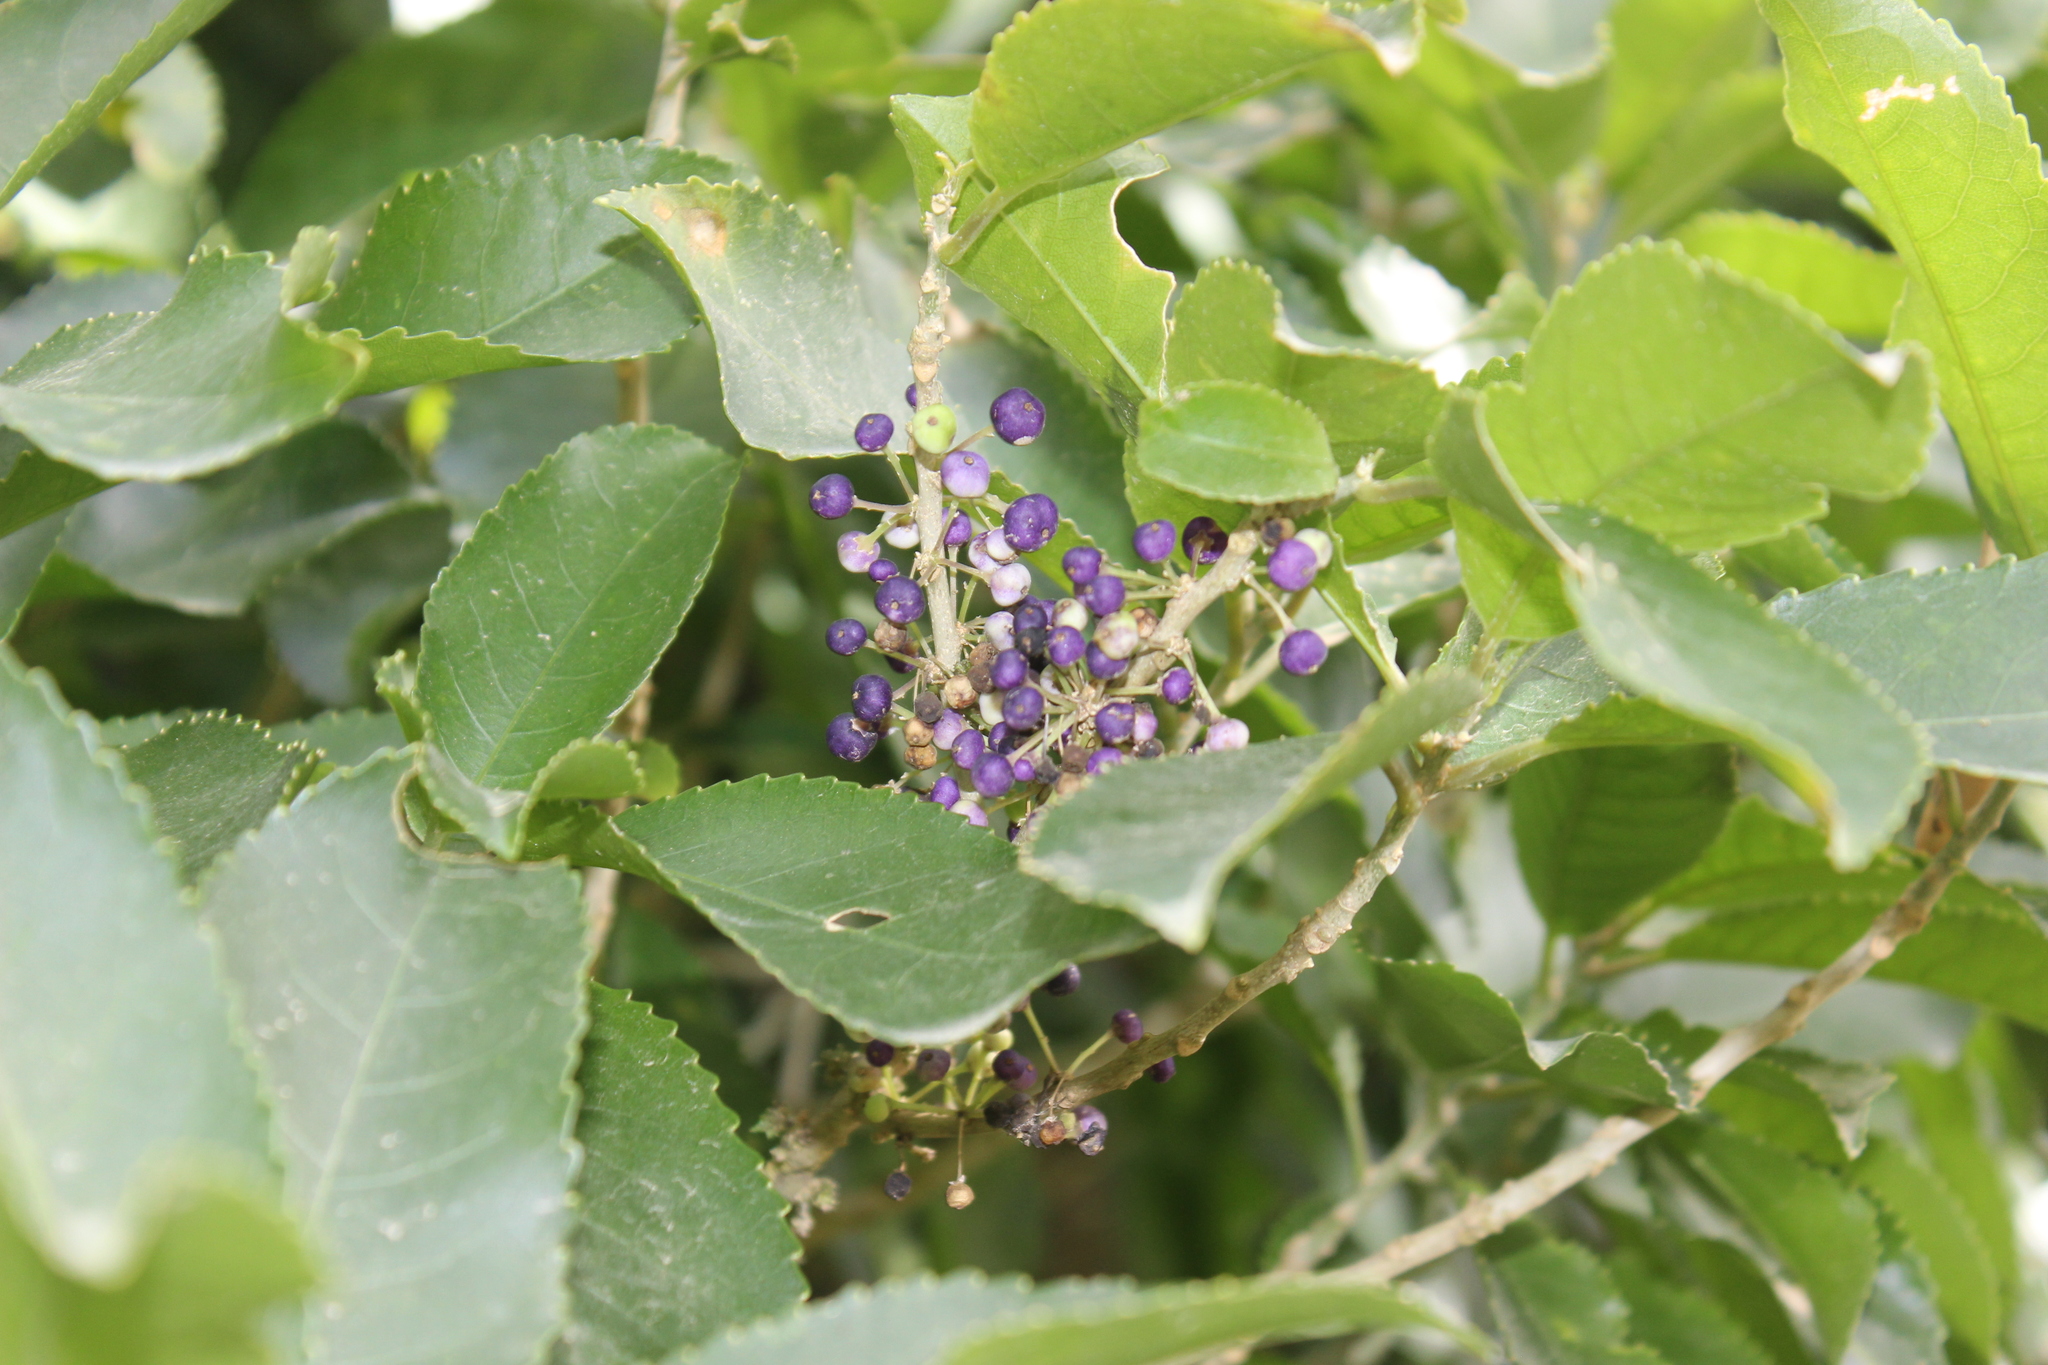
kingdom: Plantae
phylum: Tracheophyta
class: Magnoliopsida
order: Malpighiales
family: Violaceae
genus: Melicytus
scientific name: Melicytus ramiflorus
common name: Mahoe
